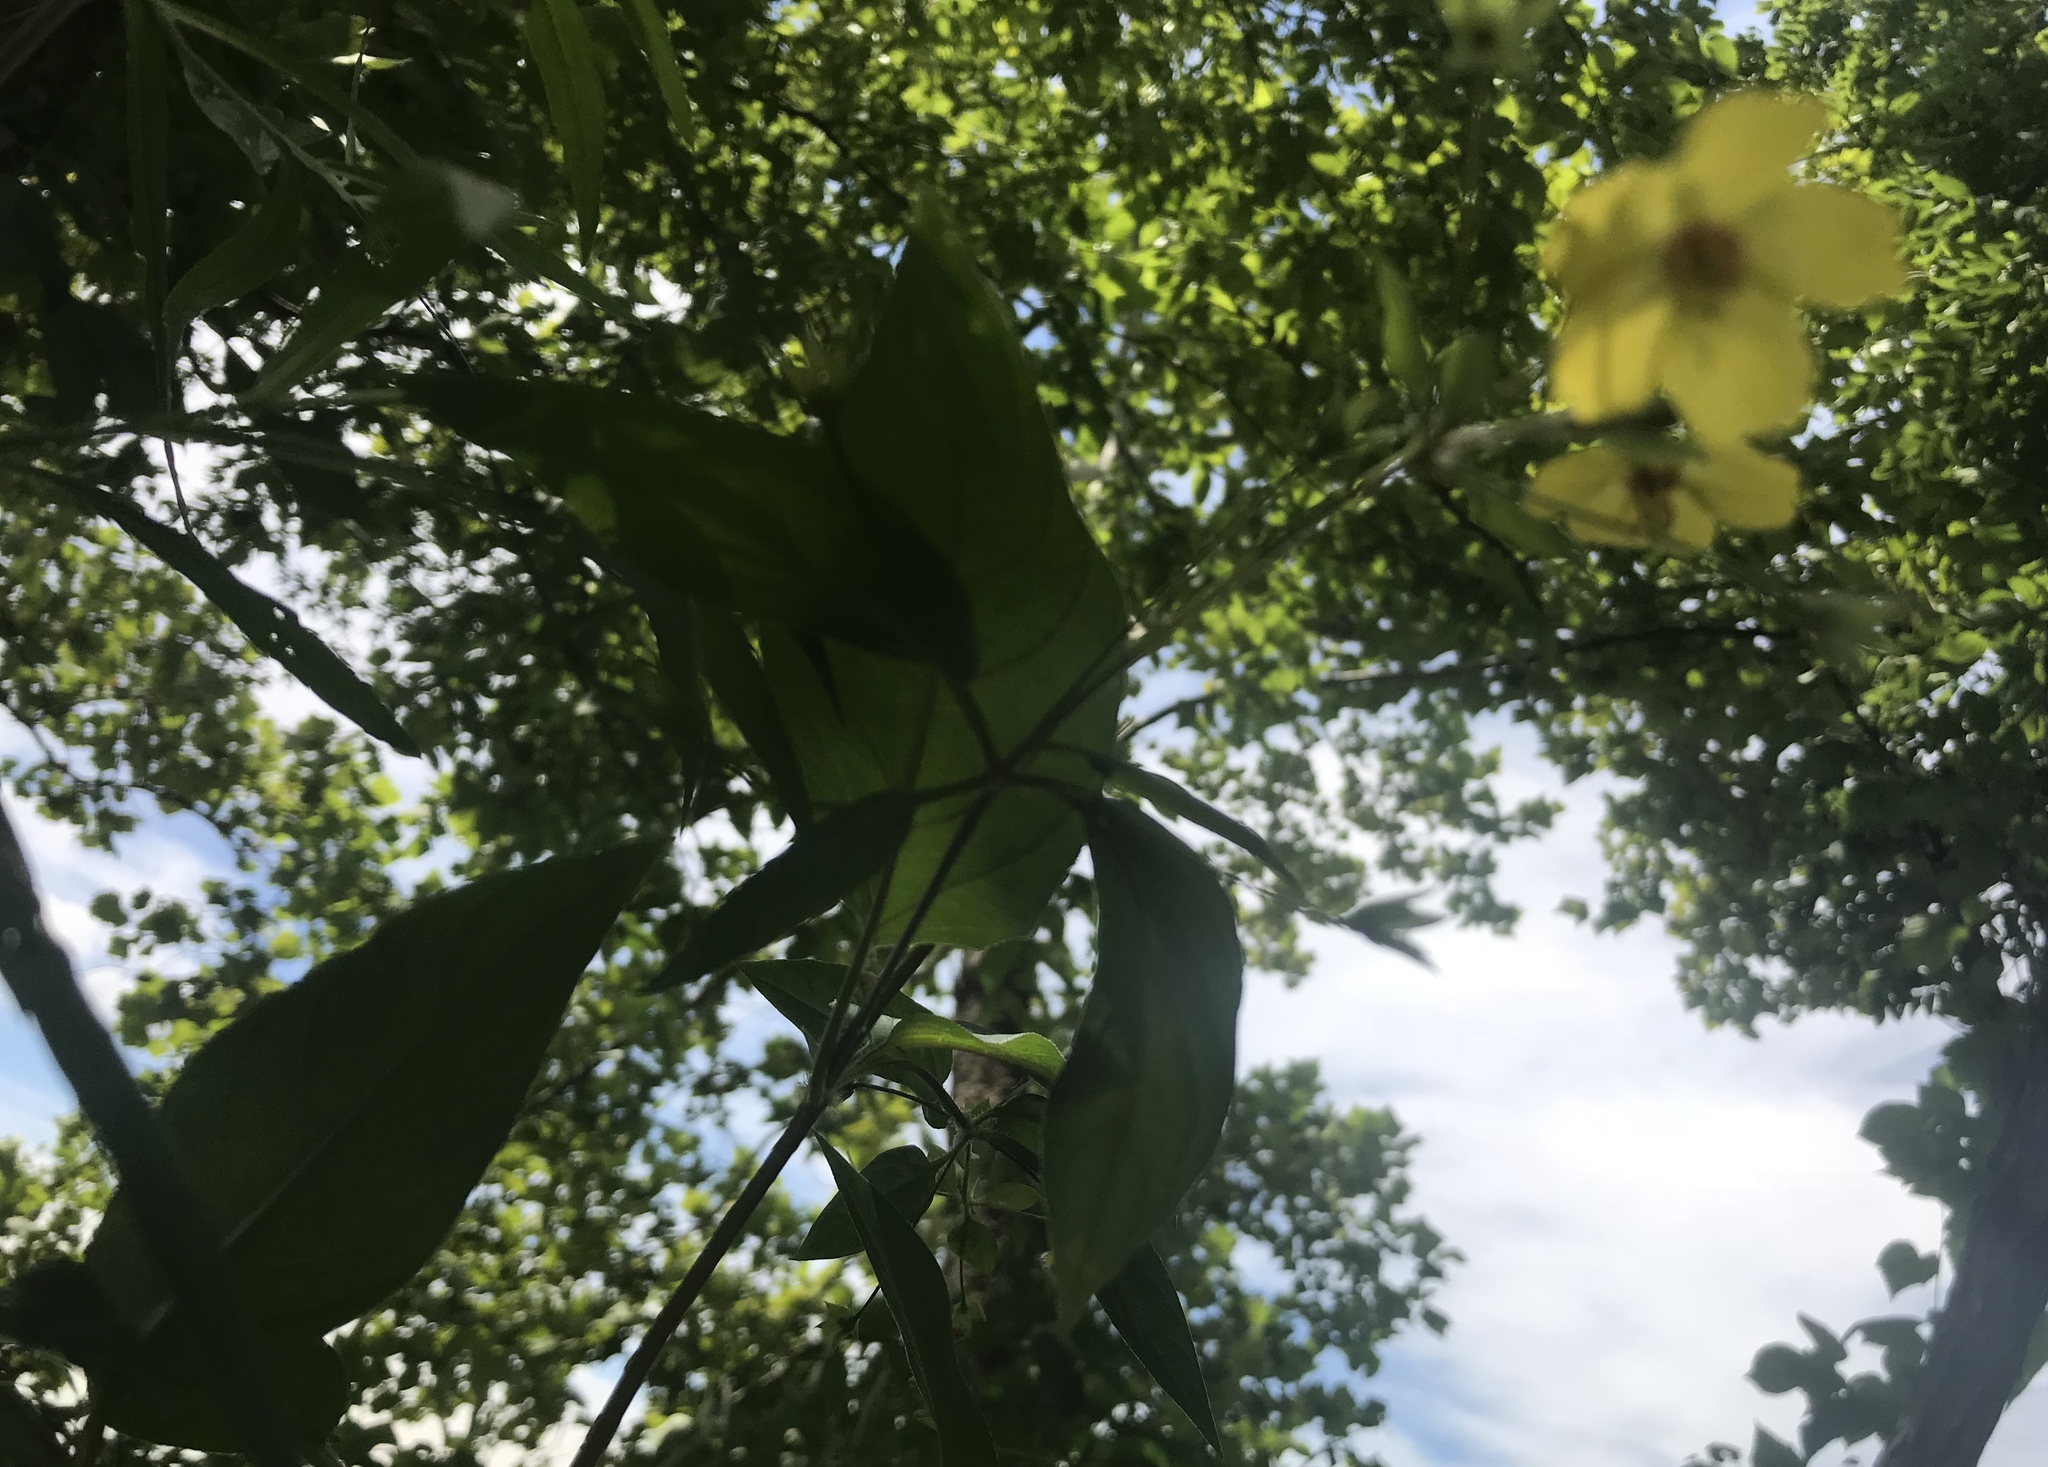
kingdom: Plantae
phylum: Tracheophyta
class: Magnoliopsida
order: Ericales
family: Primulaceae
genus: Lysimachia
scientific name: Lysimachia ciliata
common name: Fringed loosestrife
